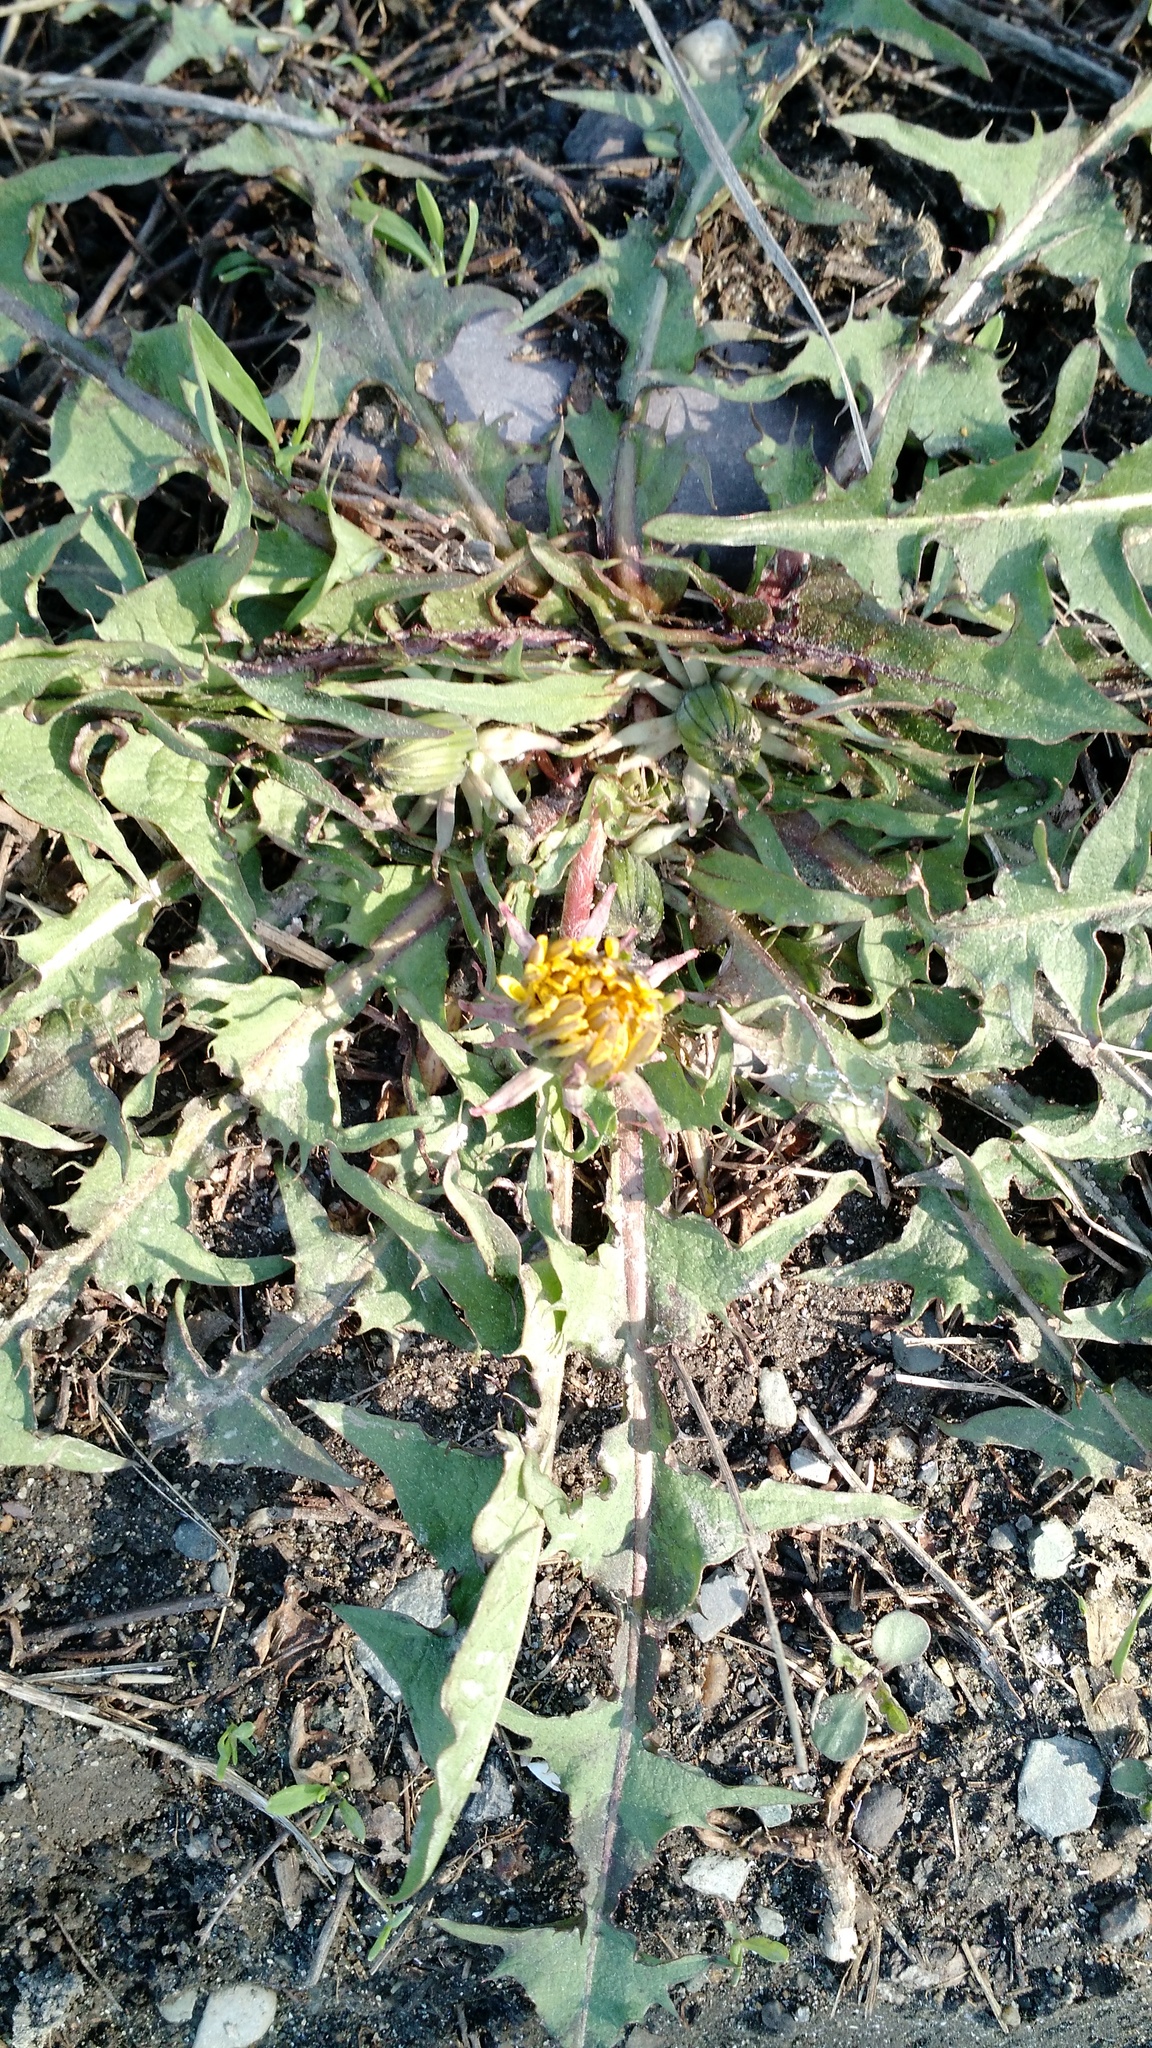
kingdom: Plantae
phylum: Tracheophyta
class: Magnoliopsida
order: Asterales
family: Asteraceae
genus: Taraxacum
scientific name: Taraxacum officinale
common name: Common dandelion
